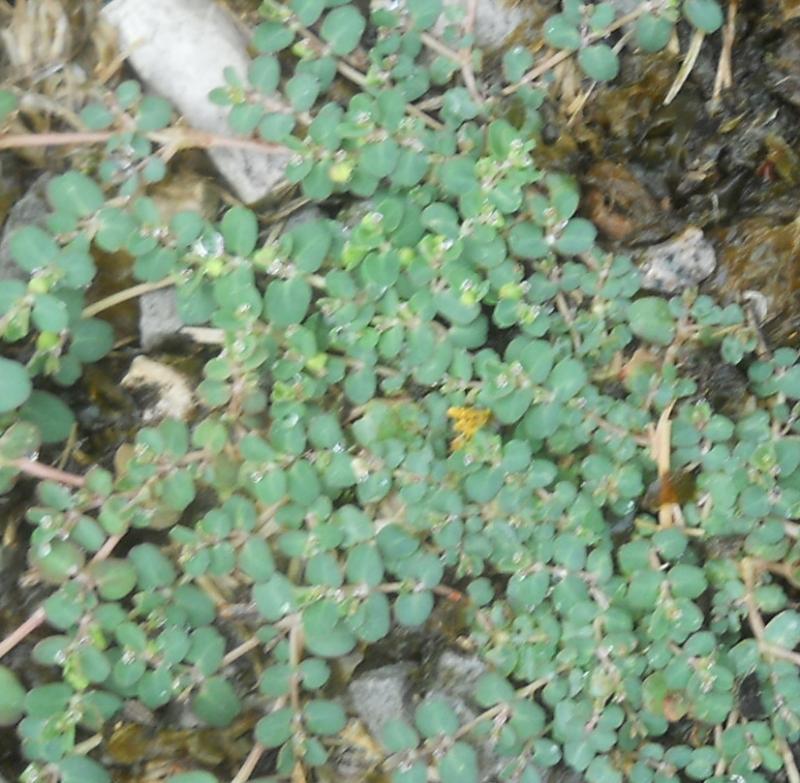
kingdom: Plantae
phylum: Tracheophyta
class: Magnoliopsida
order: Malpighiales
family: Euphorbiaceae
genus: Euphorbia
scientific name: Euphorbia serpens
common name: Matted sandmat
